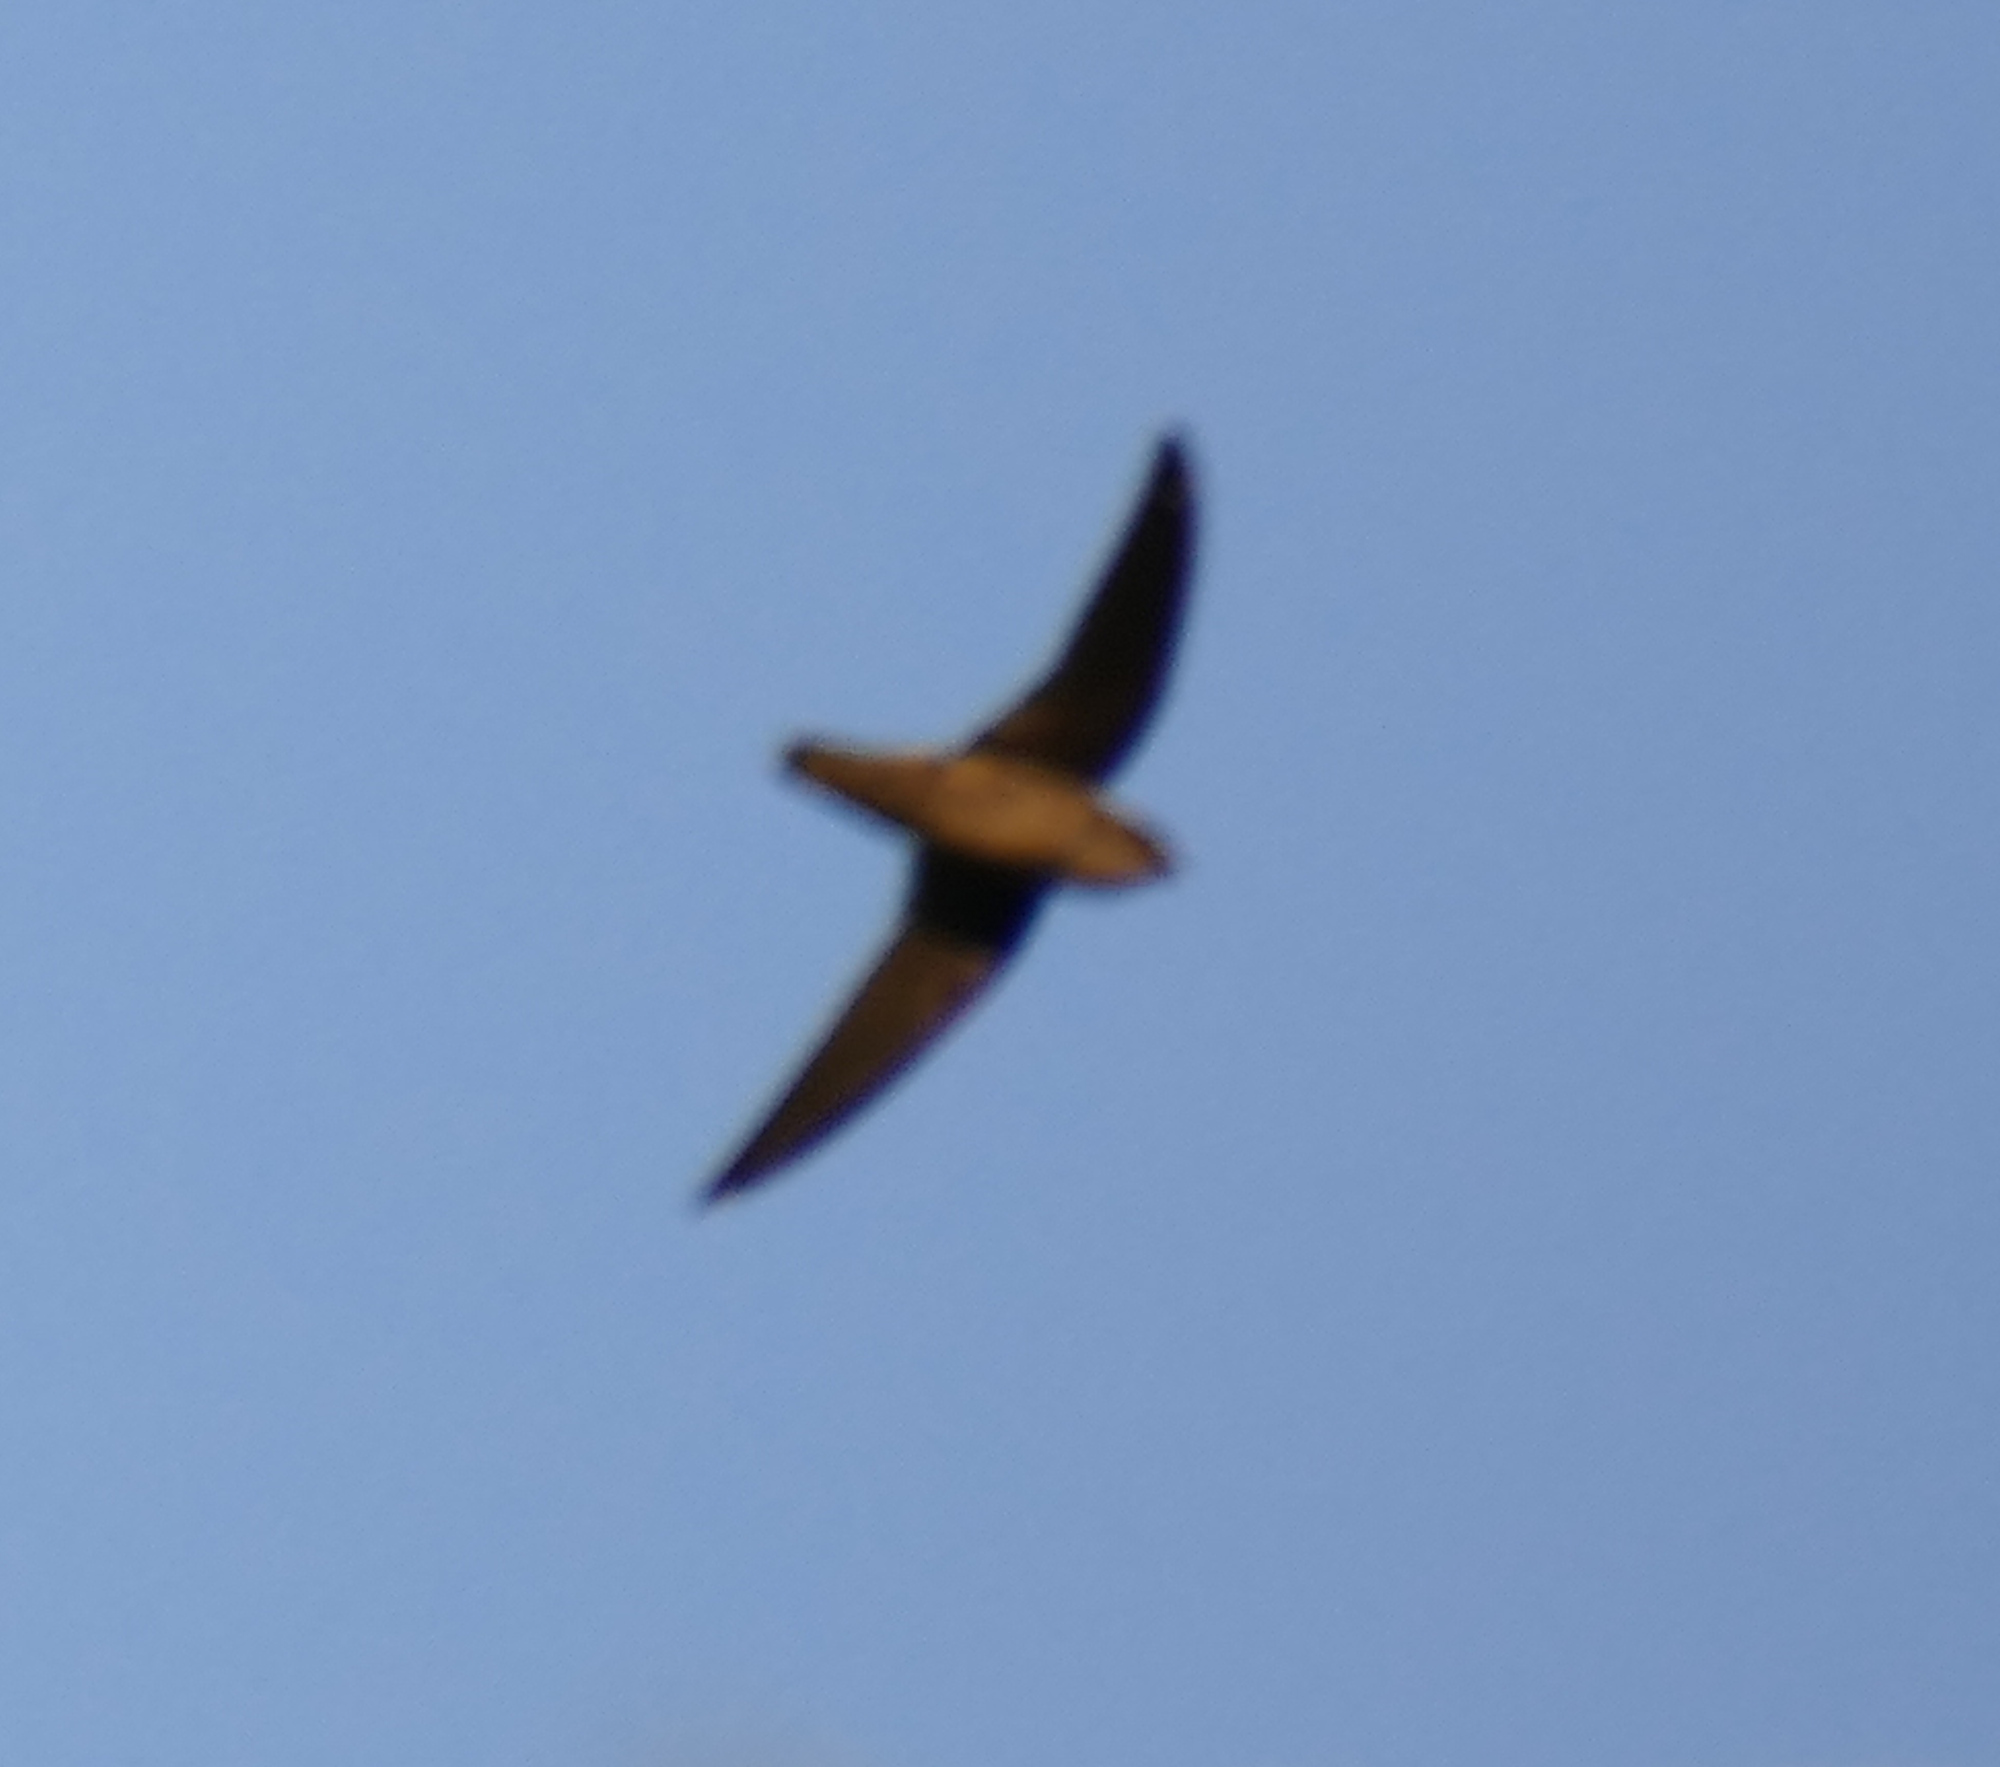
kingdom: Animalia
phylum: Chordata
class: Aves
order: Apodiformes
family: Apodidae
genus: Chaetura
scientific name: Chaetura vauxi
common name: Vaux's swift
